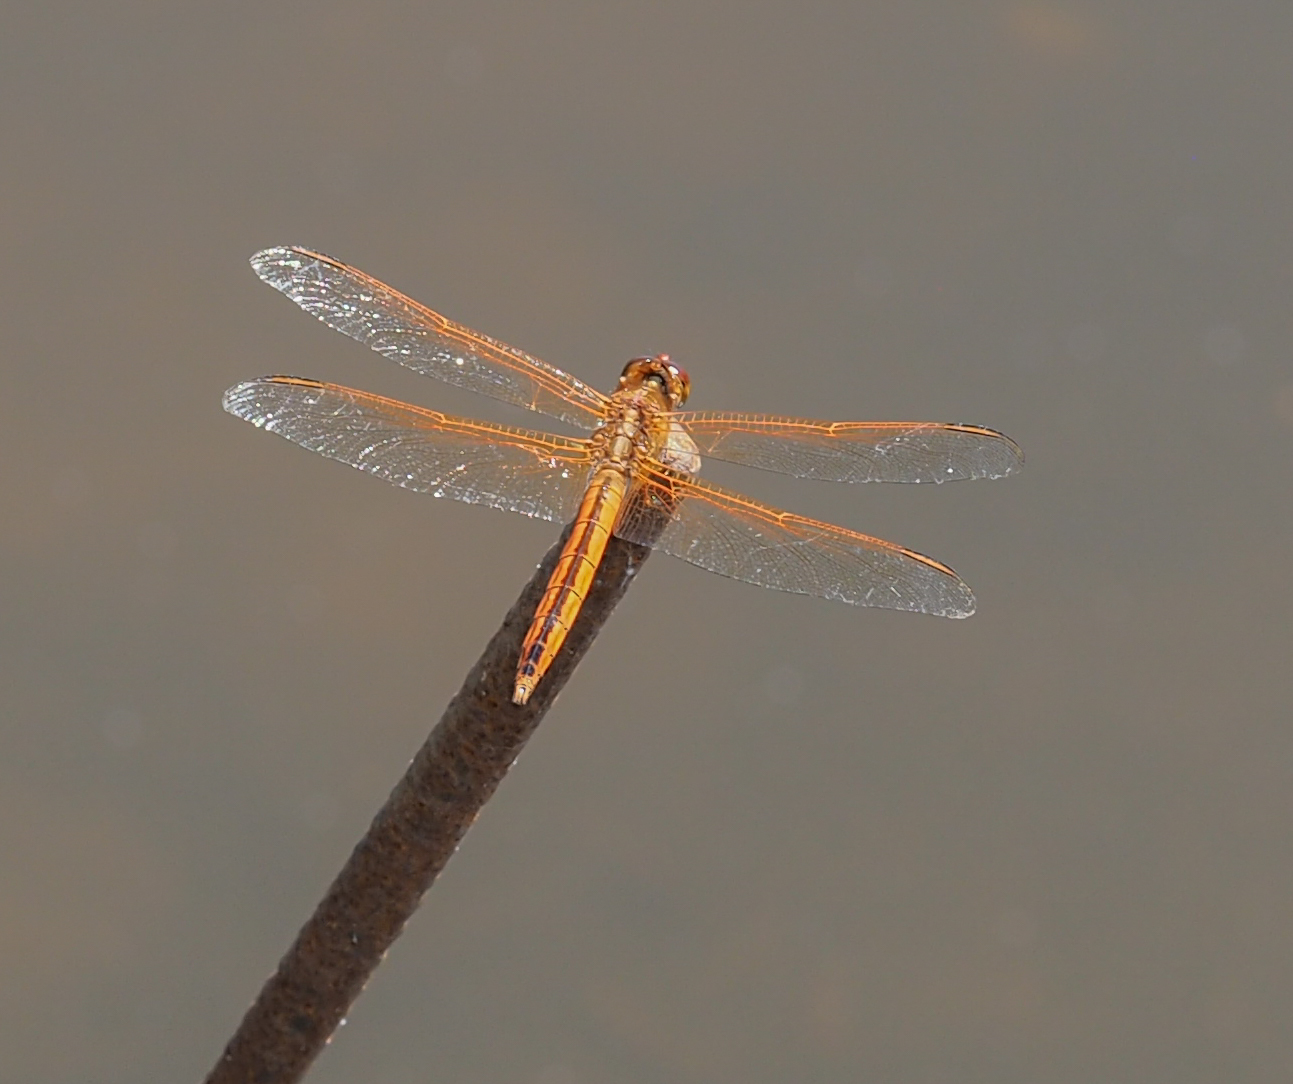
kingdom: Animalia
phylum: Arthropoda
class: Insecta
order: Odonata
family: Libellulidae
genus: Libellula
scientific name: Libellula needhami
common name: Needham's skimmer
